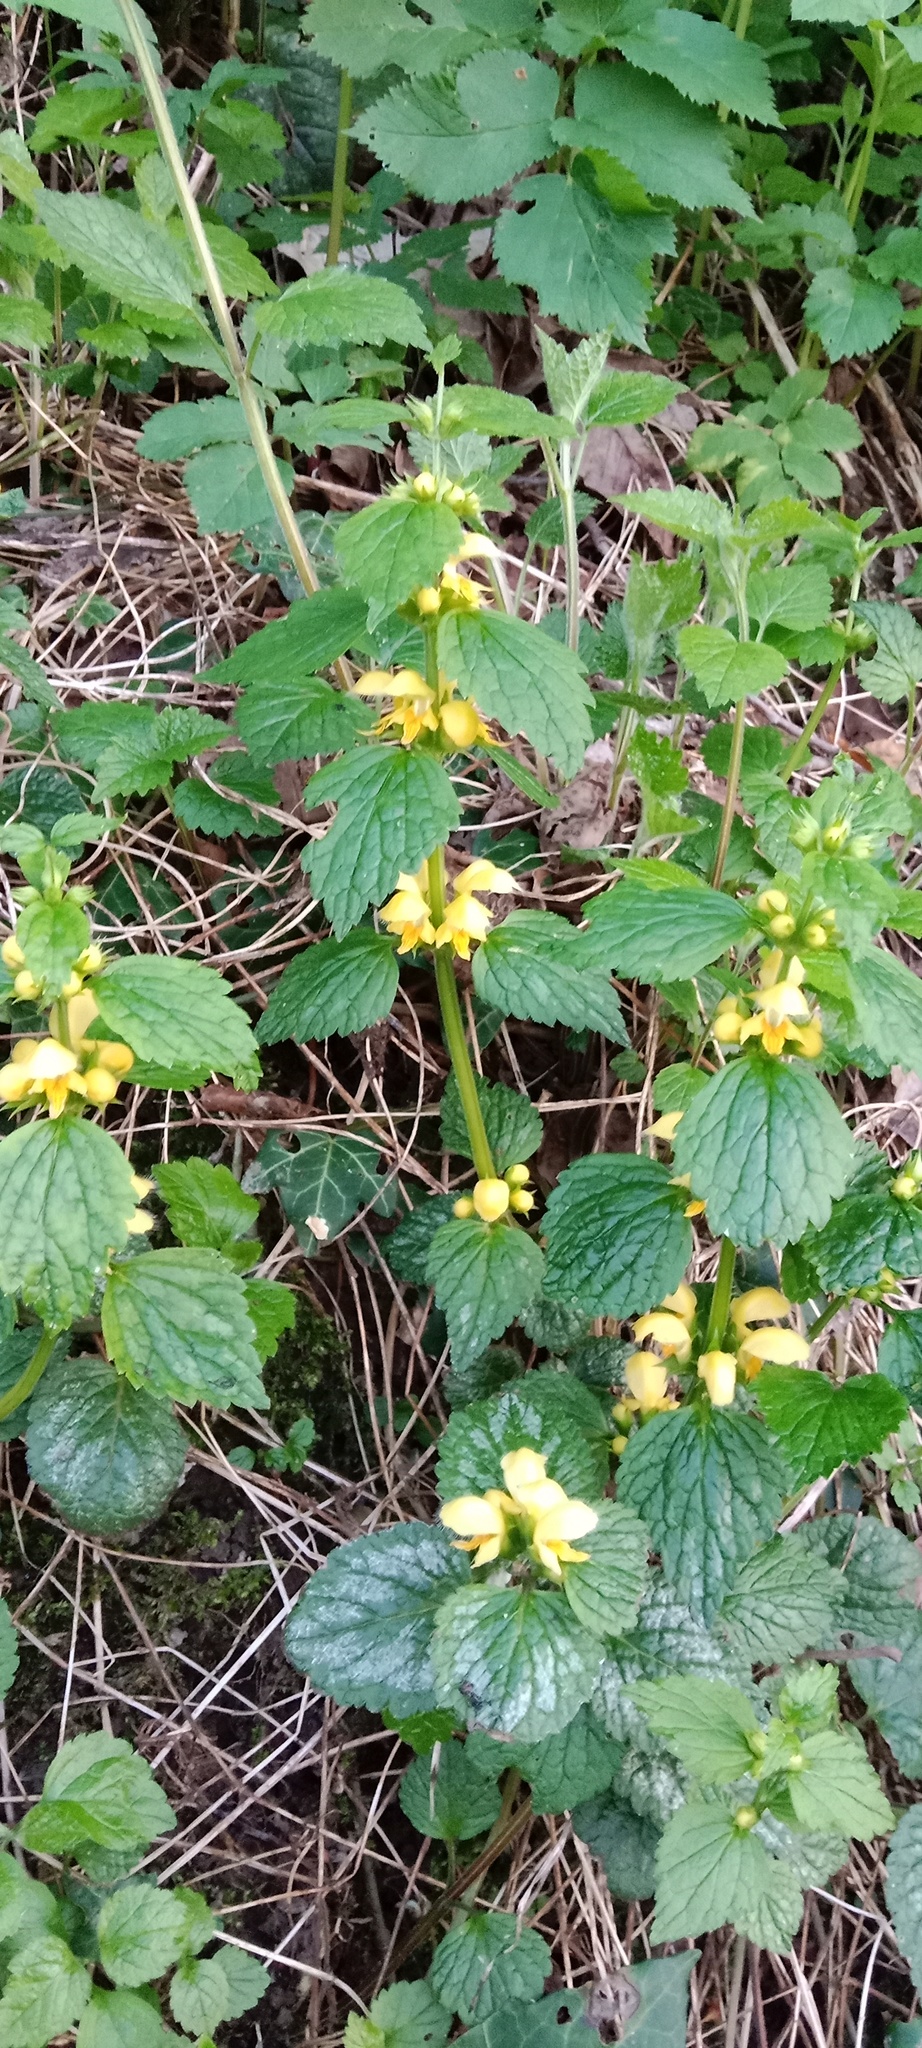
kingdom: Plantae
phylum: Tracheophyta
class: Magnoliopsida
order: Lamiales
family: Lamiaceae
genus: Lamium
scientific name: Lamium galeobdolon
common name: Yellow archangel
